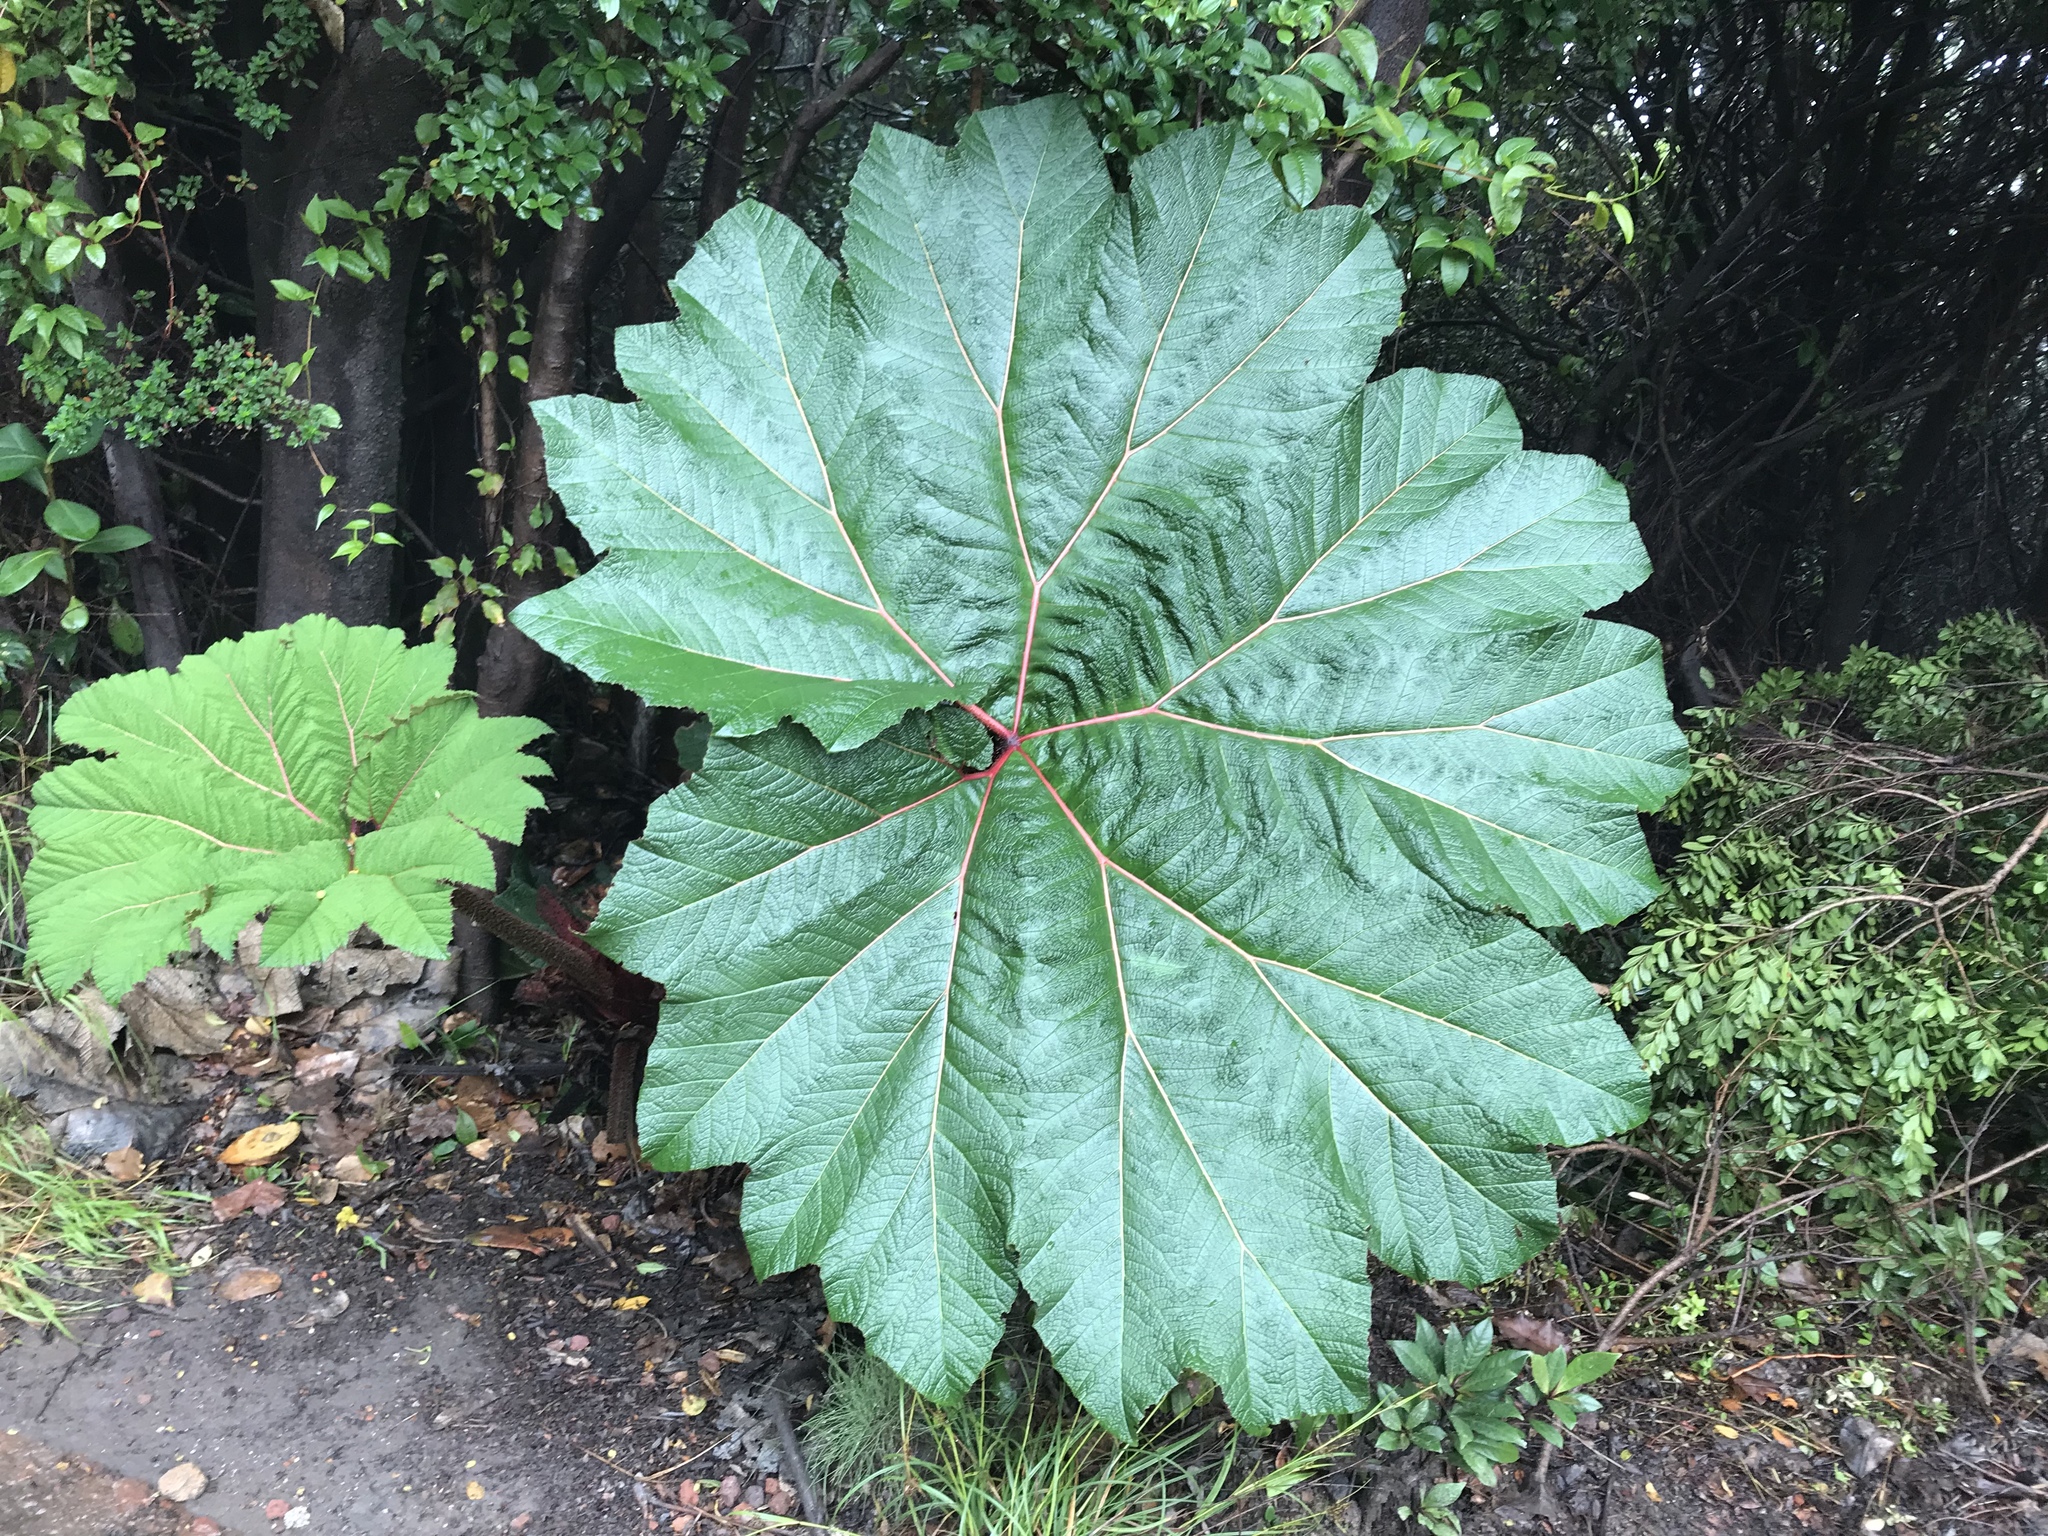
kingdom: Plantae
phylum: Tracheophyta
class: Magnoliopsida
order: Gunnerales
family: Gunneraceae
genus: Gunnera
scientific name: Gunnera insignis
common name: Poorman's umbrella
